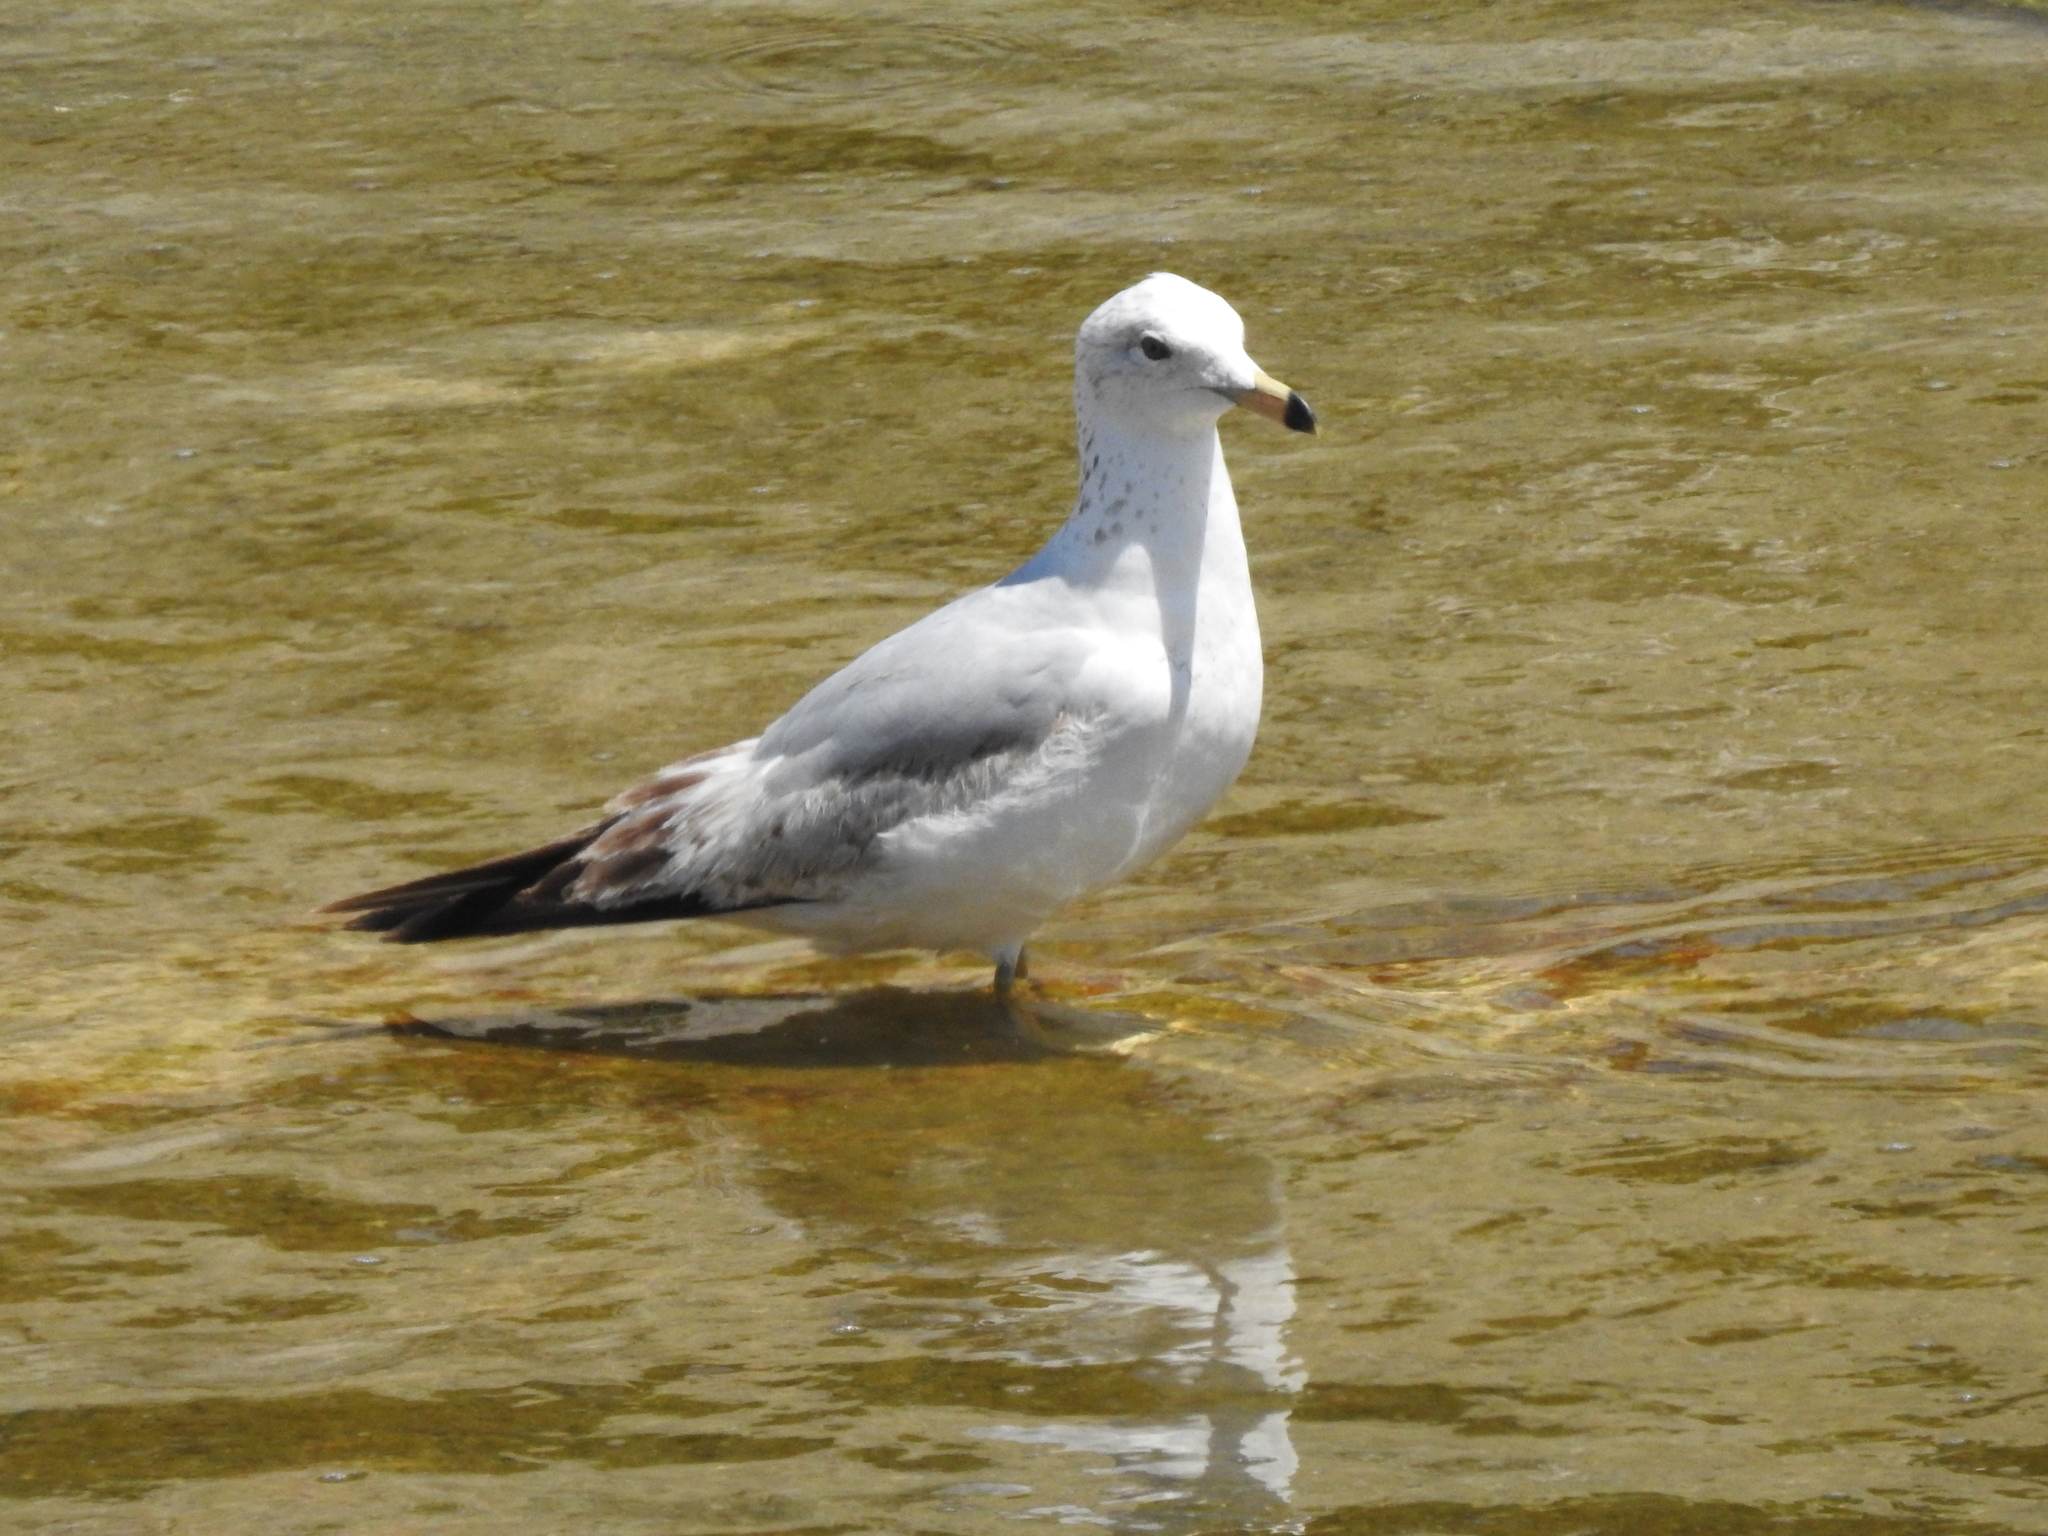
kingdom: Animalia
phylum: Chordata
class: Aves
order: Charadriiformes
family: Laridae
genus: Larus
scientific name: Larus delawarensis
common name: Ring-billed gull
